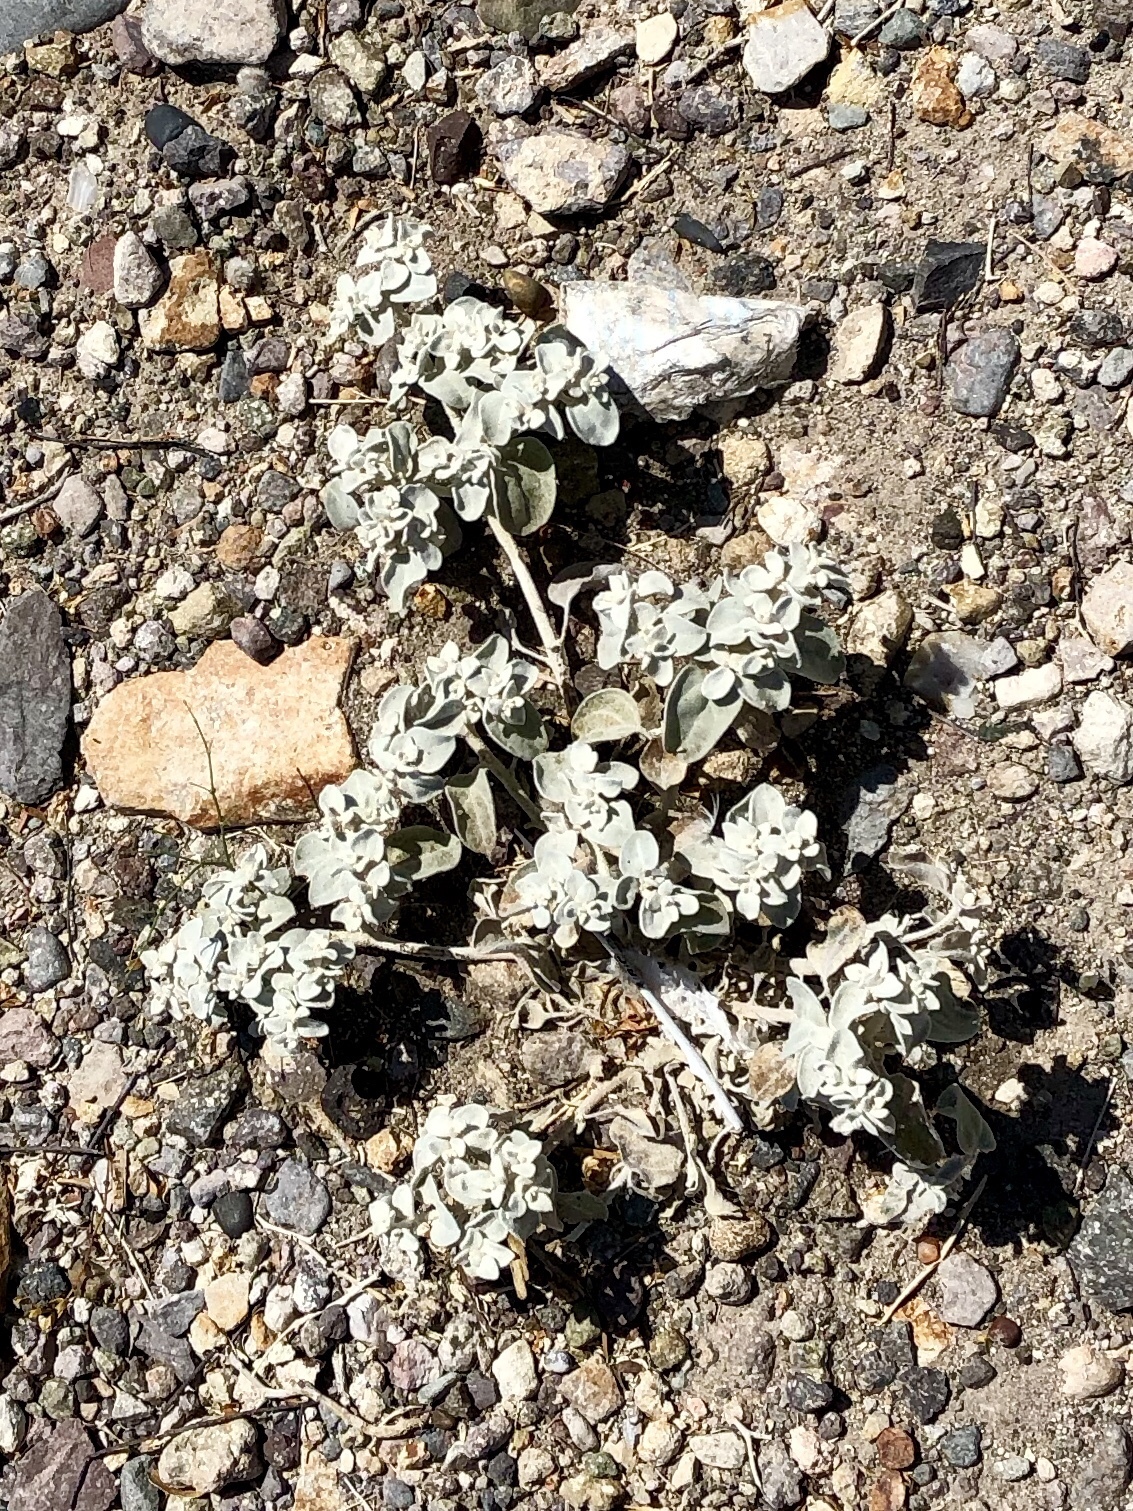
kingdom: Plantae
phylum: Tracheophyta
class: Magnoliopsida
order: Caryophyllales
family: Amaranthaceae
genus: Tidestromia
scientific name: Tidestromia suffruticosa
